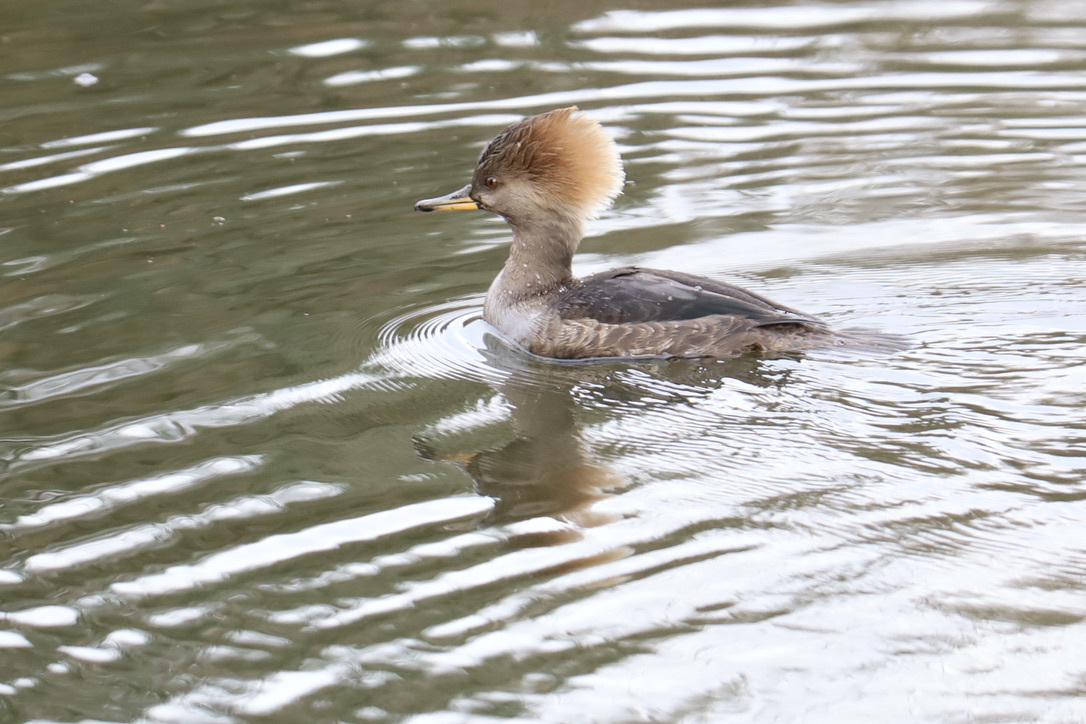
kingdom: Animalia
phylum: Chordata
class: Aves
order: Anseriformes
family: Anatidae
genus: Lophodytes
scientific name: Lophodytes cucullatus
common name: Hooded merganser
